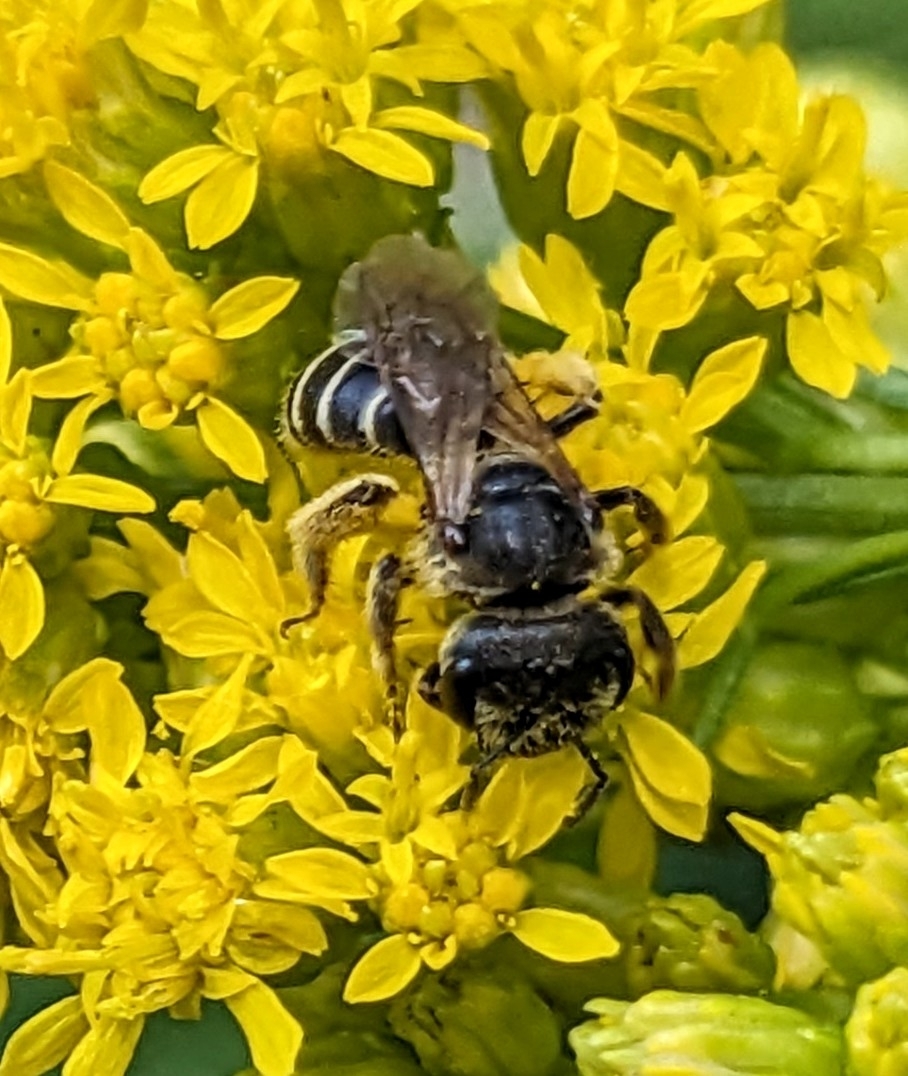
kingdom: Animalia
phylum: Arthropoda
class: Insecta
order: Hymenoptera
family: Halictidae
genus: Halictus
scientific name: Halictus ligatus
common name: Ligated furrow bee
